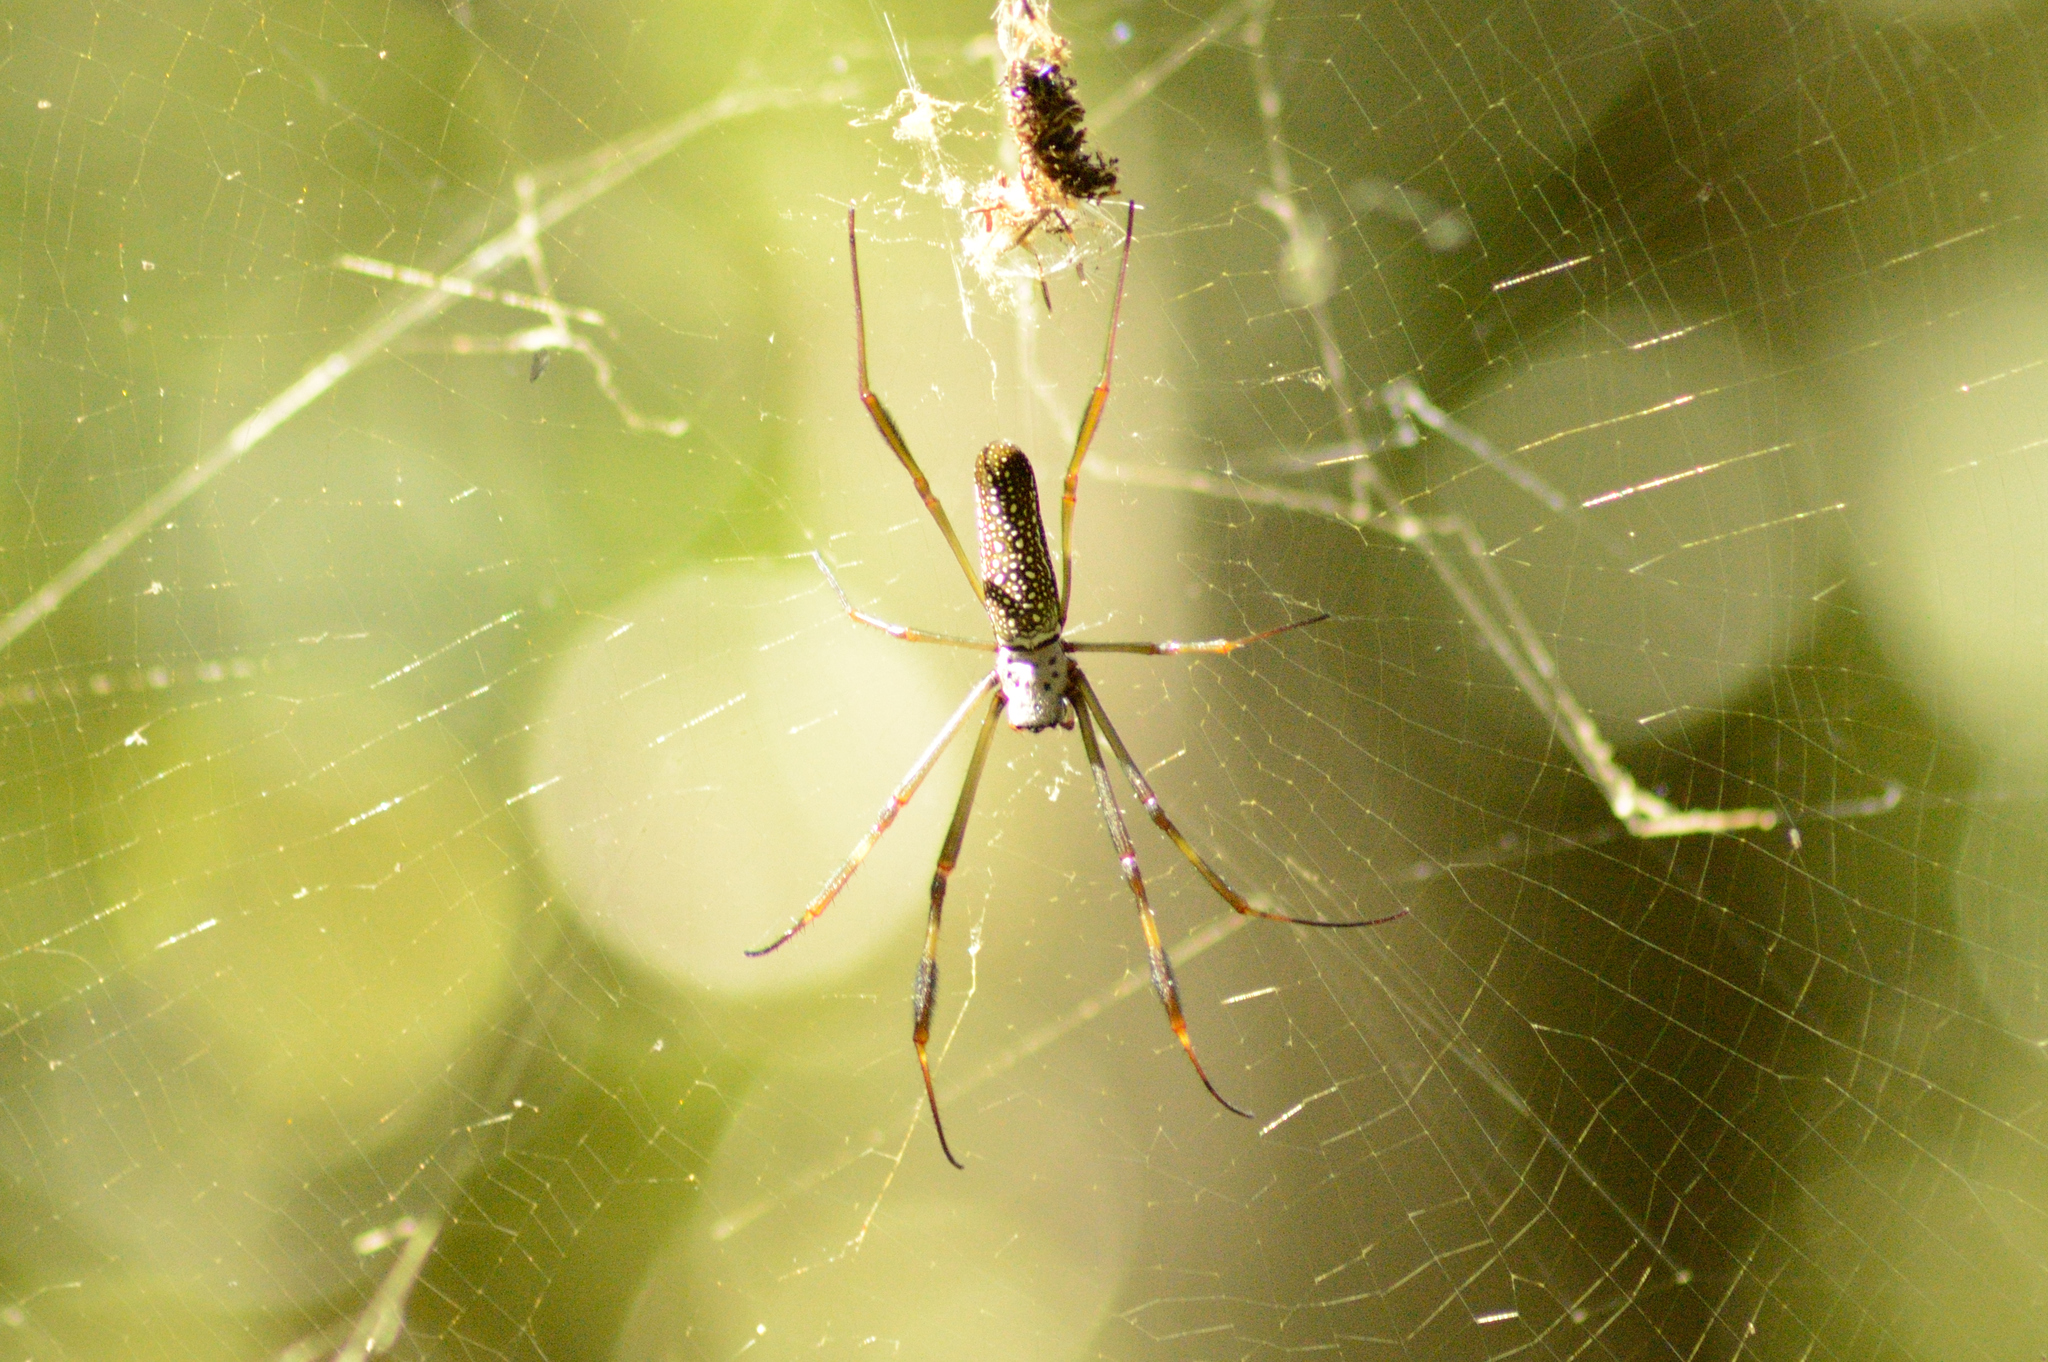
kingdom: Animalia
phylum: Arthropoda
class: Arachnida
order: Araneae
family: Araneidae
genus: Trichonephila
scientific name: Trichonephila clavipes
